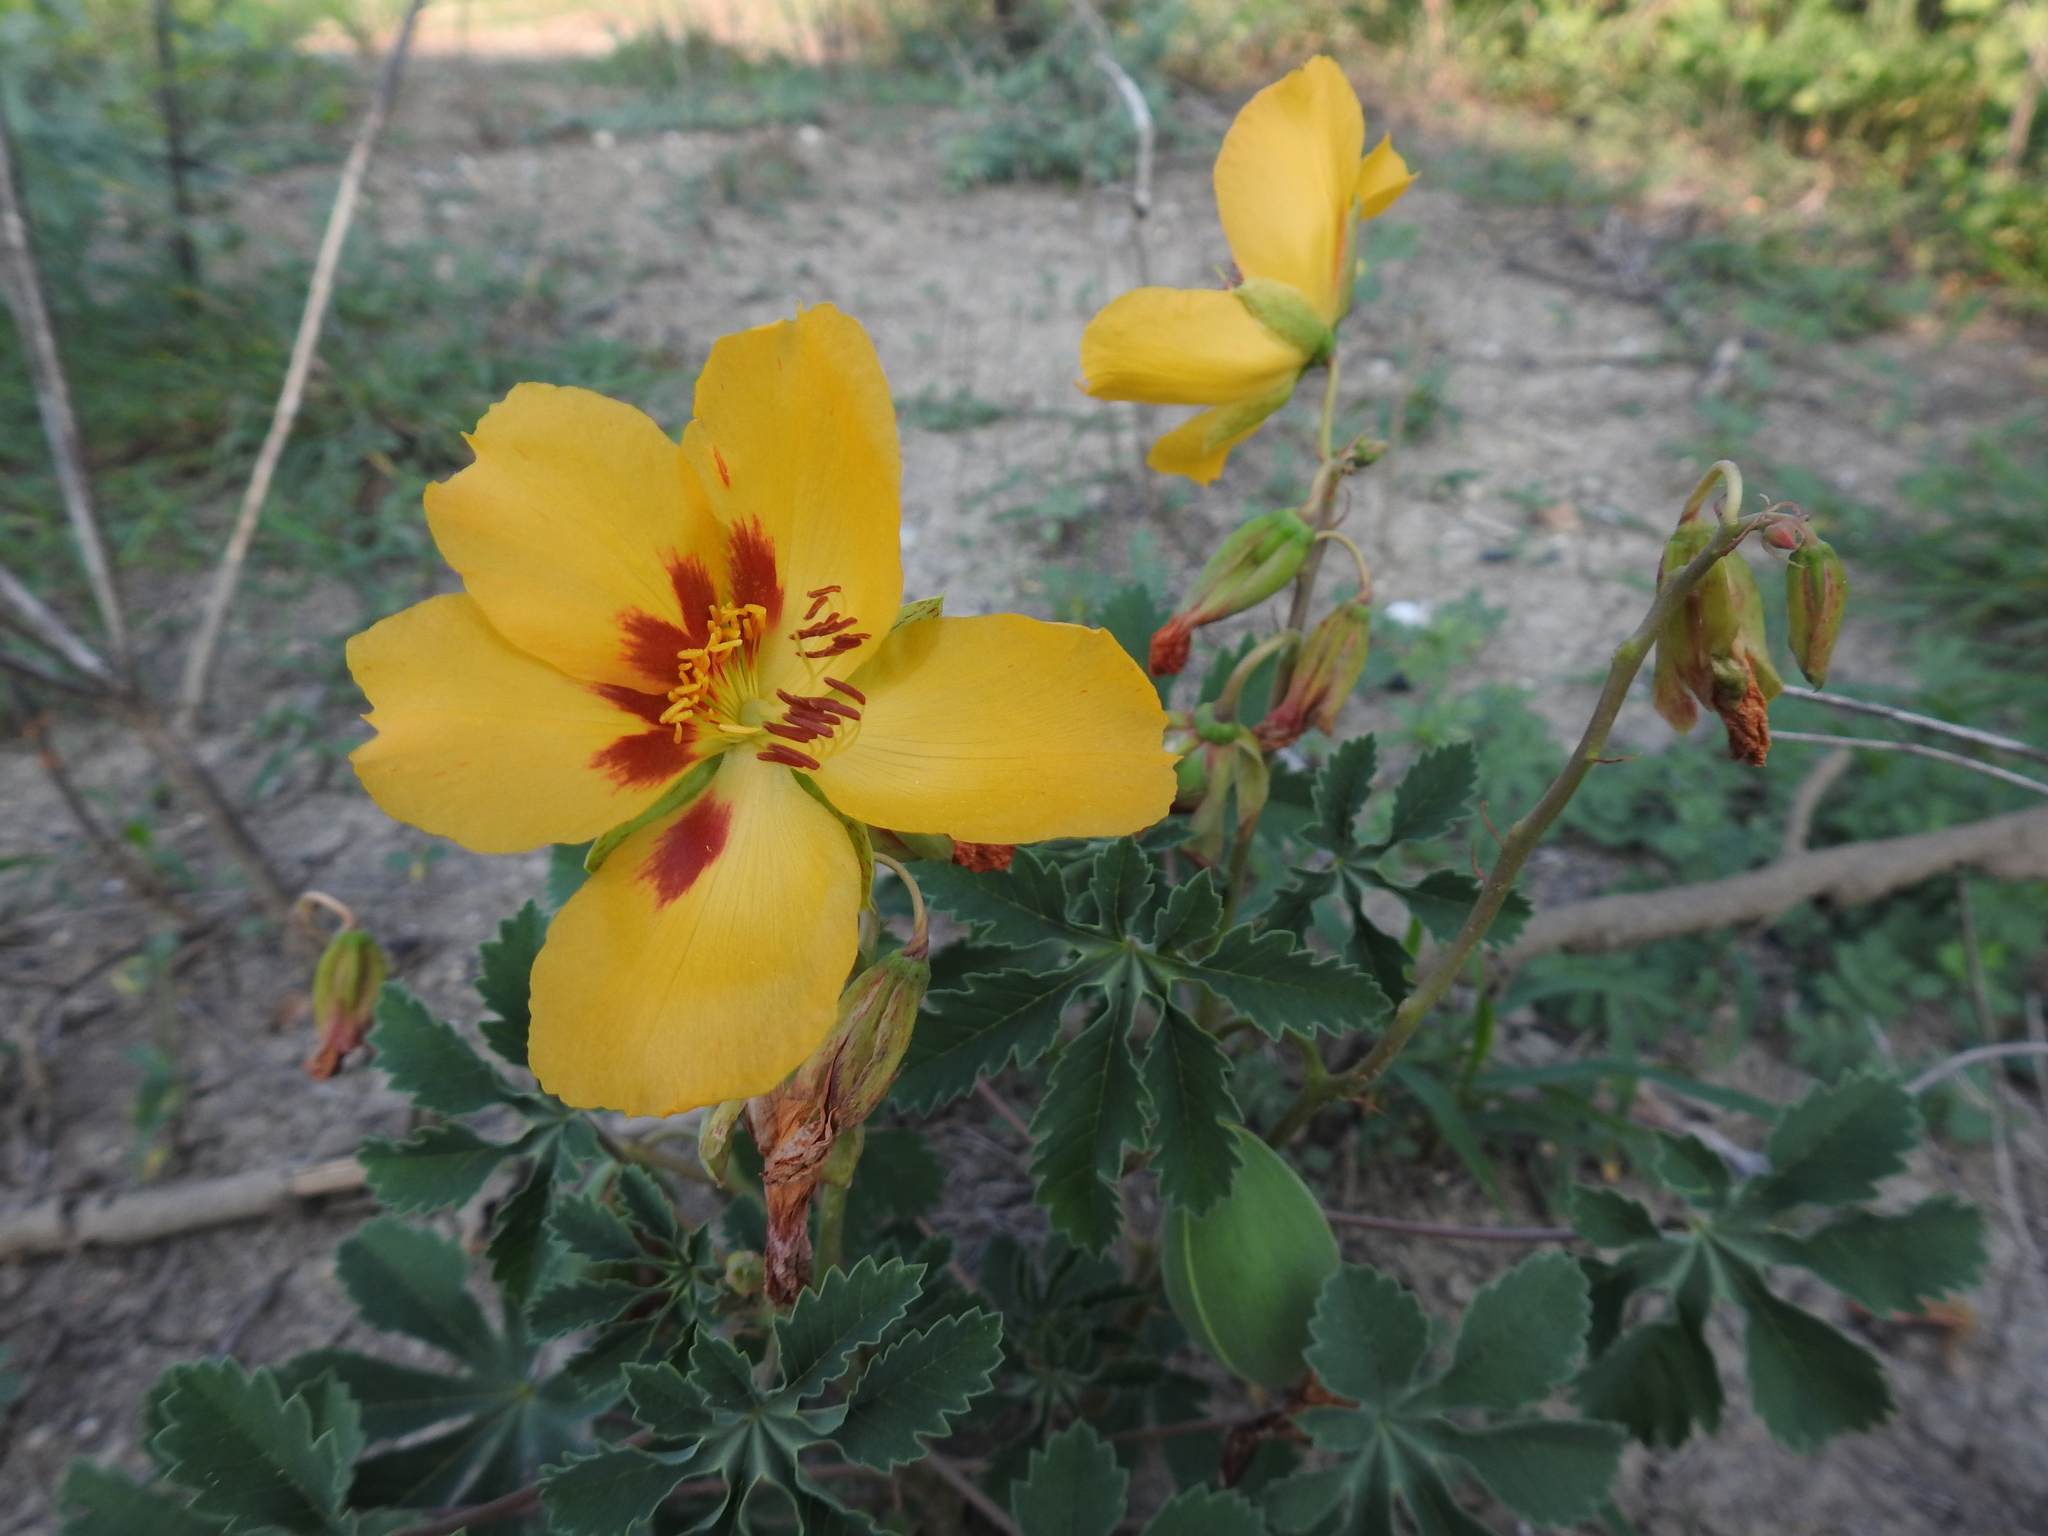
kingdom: Plantae
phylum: Tracheophyta
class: Magnoliopsida
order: Malvales
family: Cochlospermaceae
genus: Cochlospermum
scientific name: Cochlospermum wrightii
